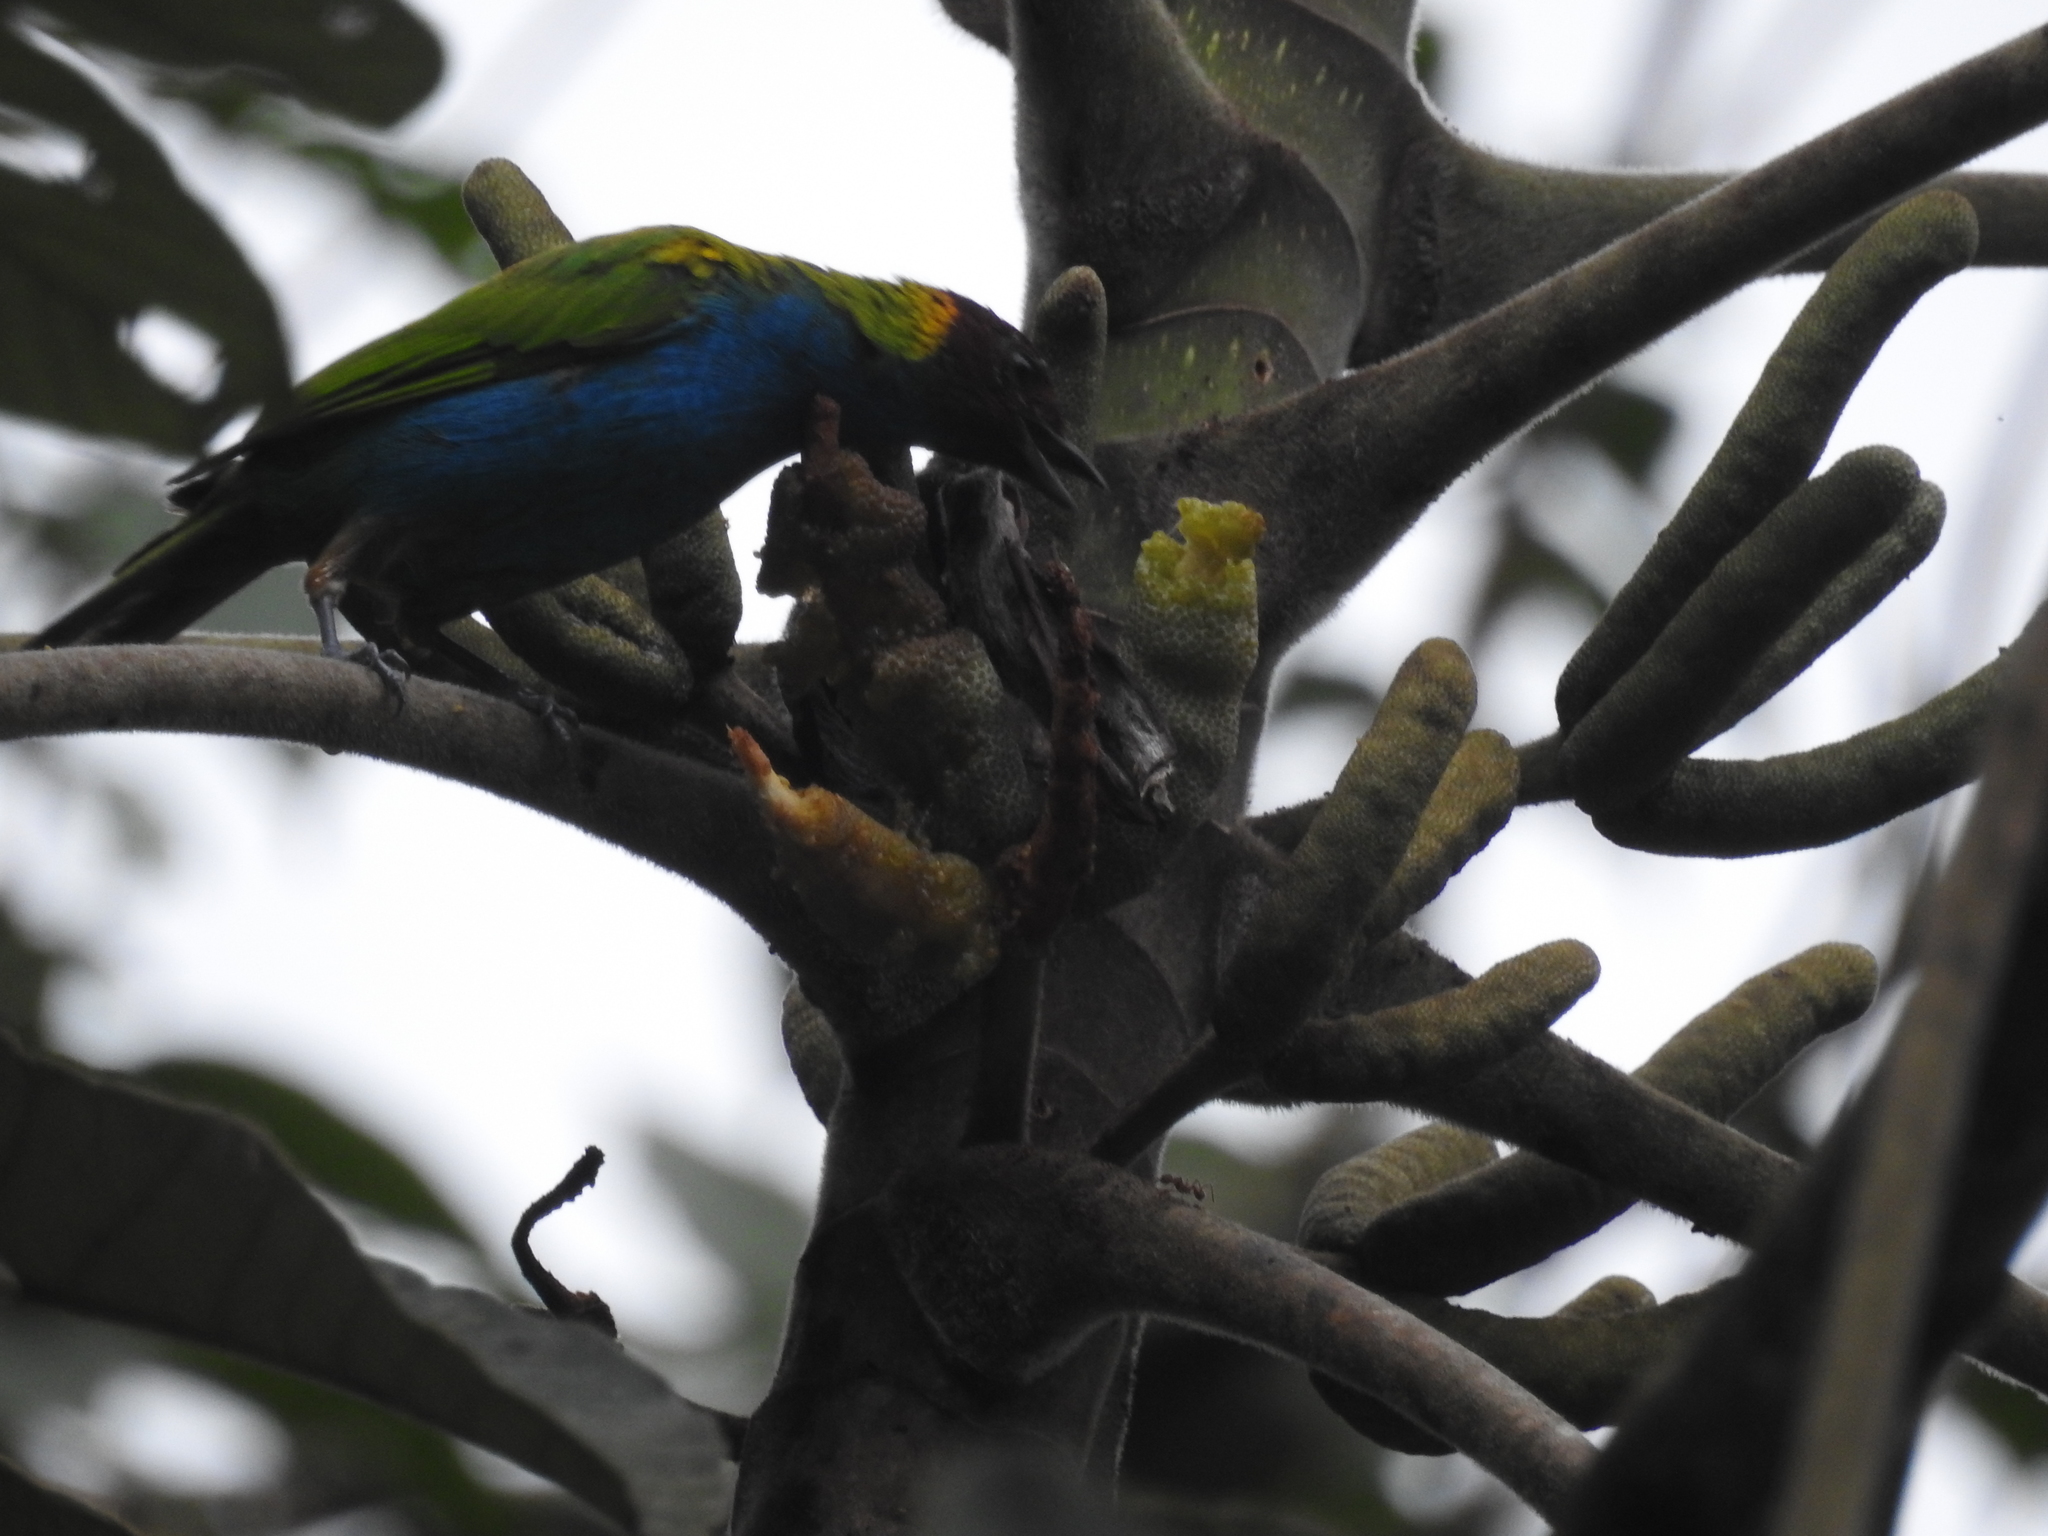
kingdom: Animalia
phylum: Chordata
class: Aves
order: Passeriformes
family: Thraupidae
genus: Tangara
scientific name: Tangara gyrola
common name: Bay-headed tanager
